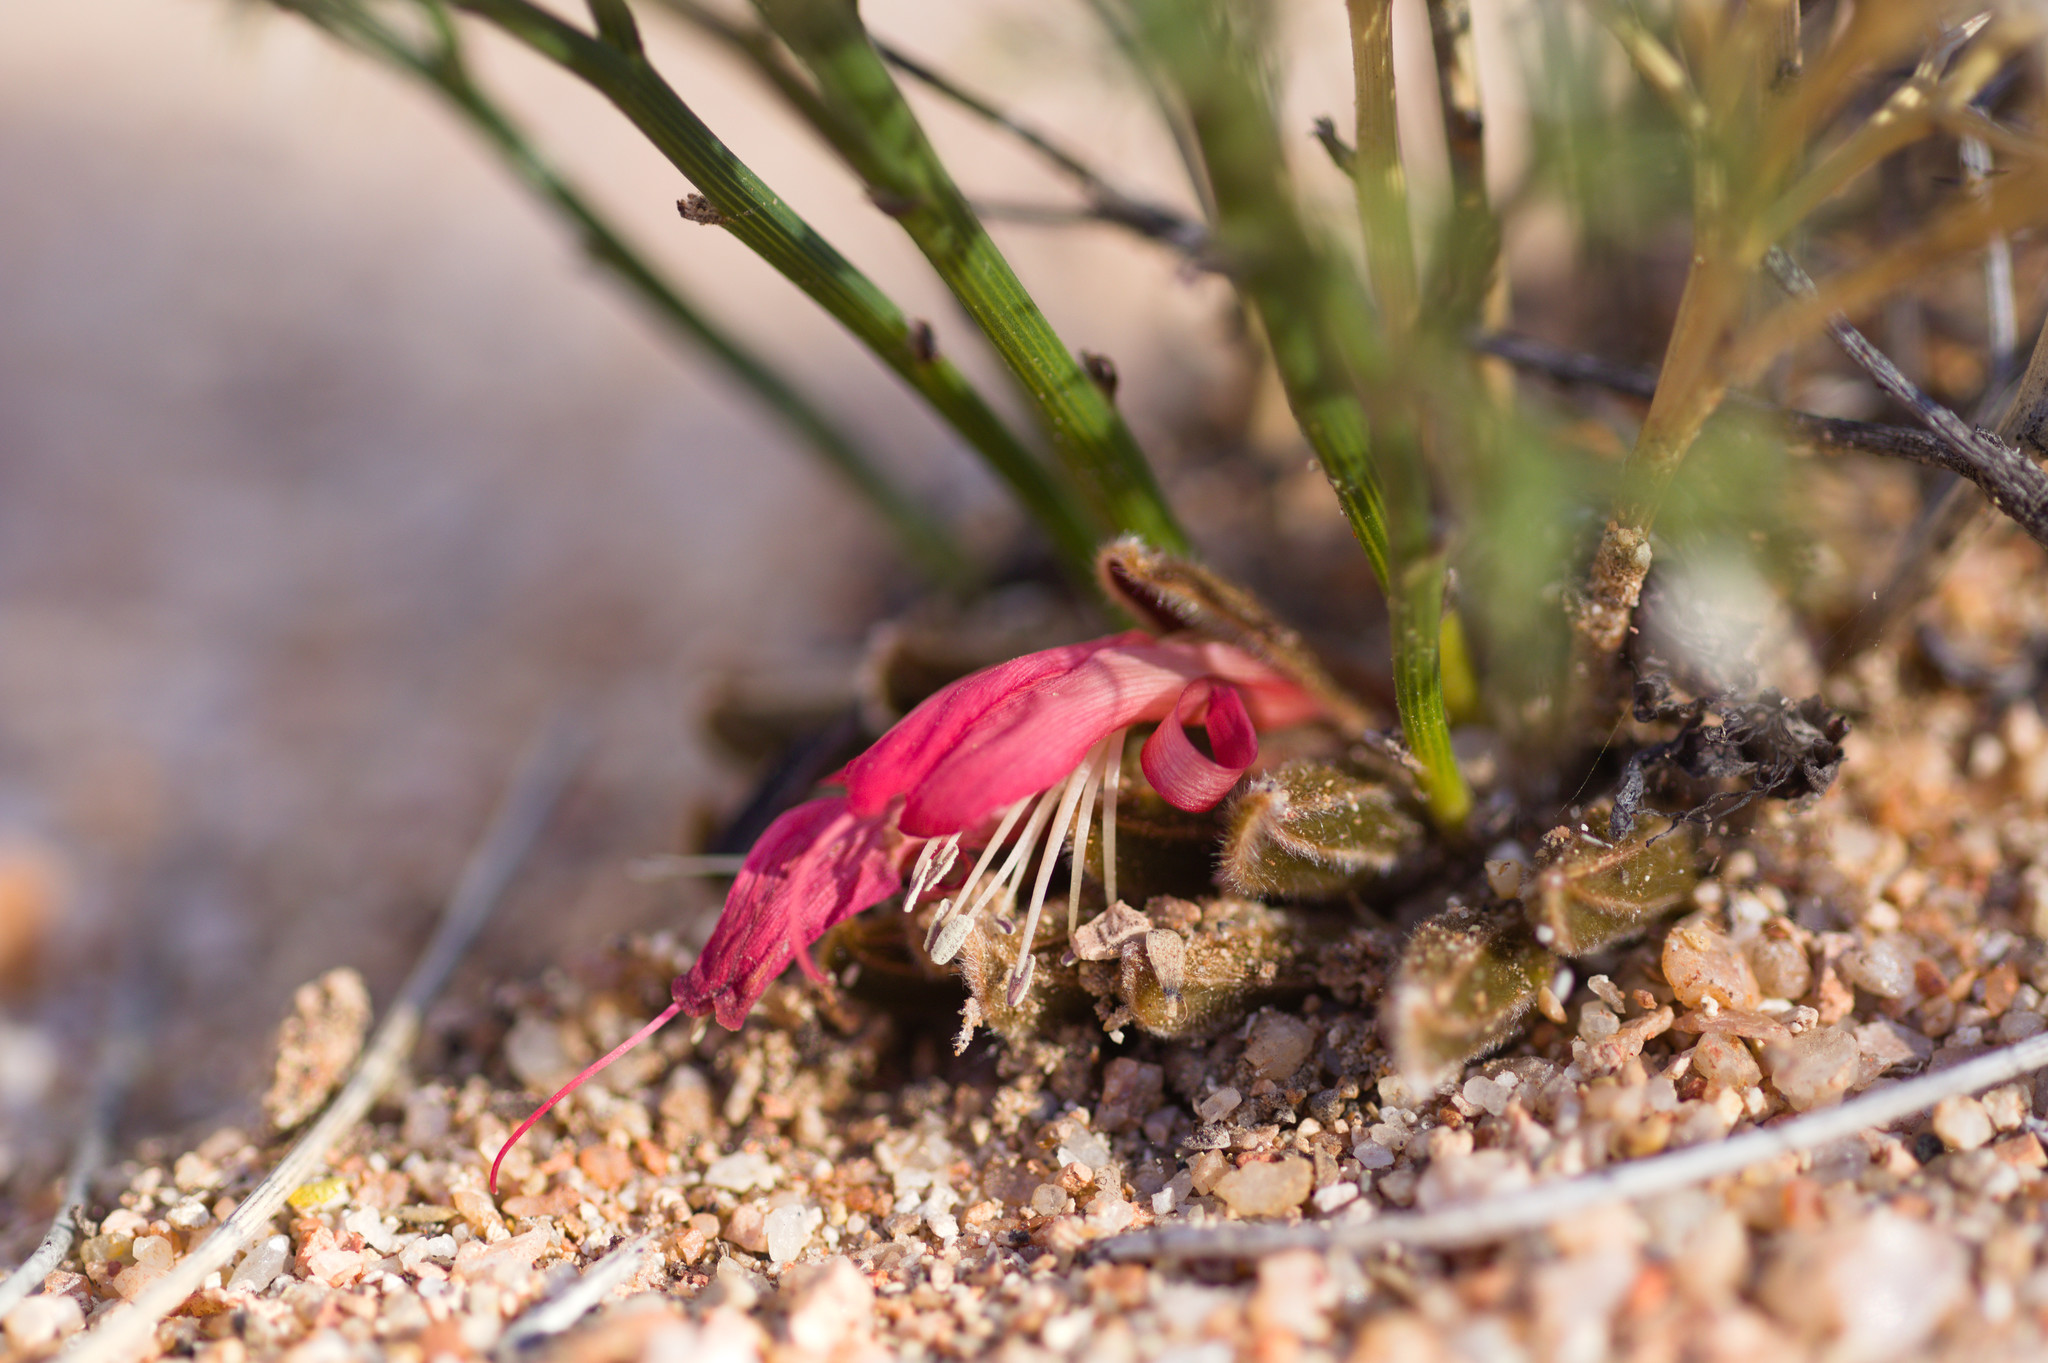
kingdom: Plantae
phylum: Tracheophyta
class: Magnoliopsida
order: Fabales
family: Fabaceae
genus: Leptosema
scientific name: Leptosema daviesioides
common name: Upside-down pea-bush
